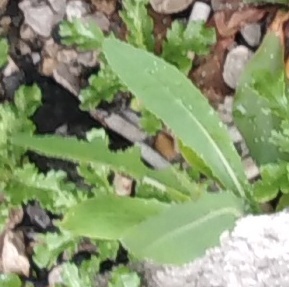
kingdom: Plantae
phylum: Tracheophyta
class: Magnoliopsida
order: Asterales
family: Asteraceae
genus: Lactuca
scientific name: Lactuca serriola
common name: Prickly lettuce
